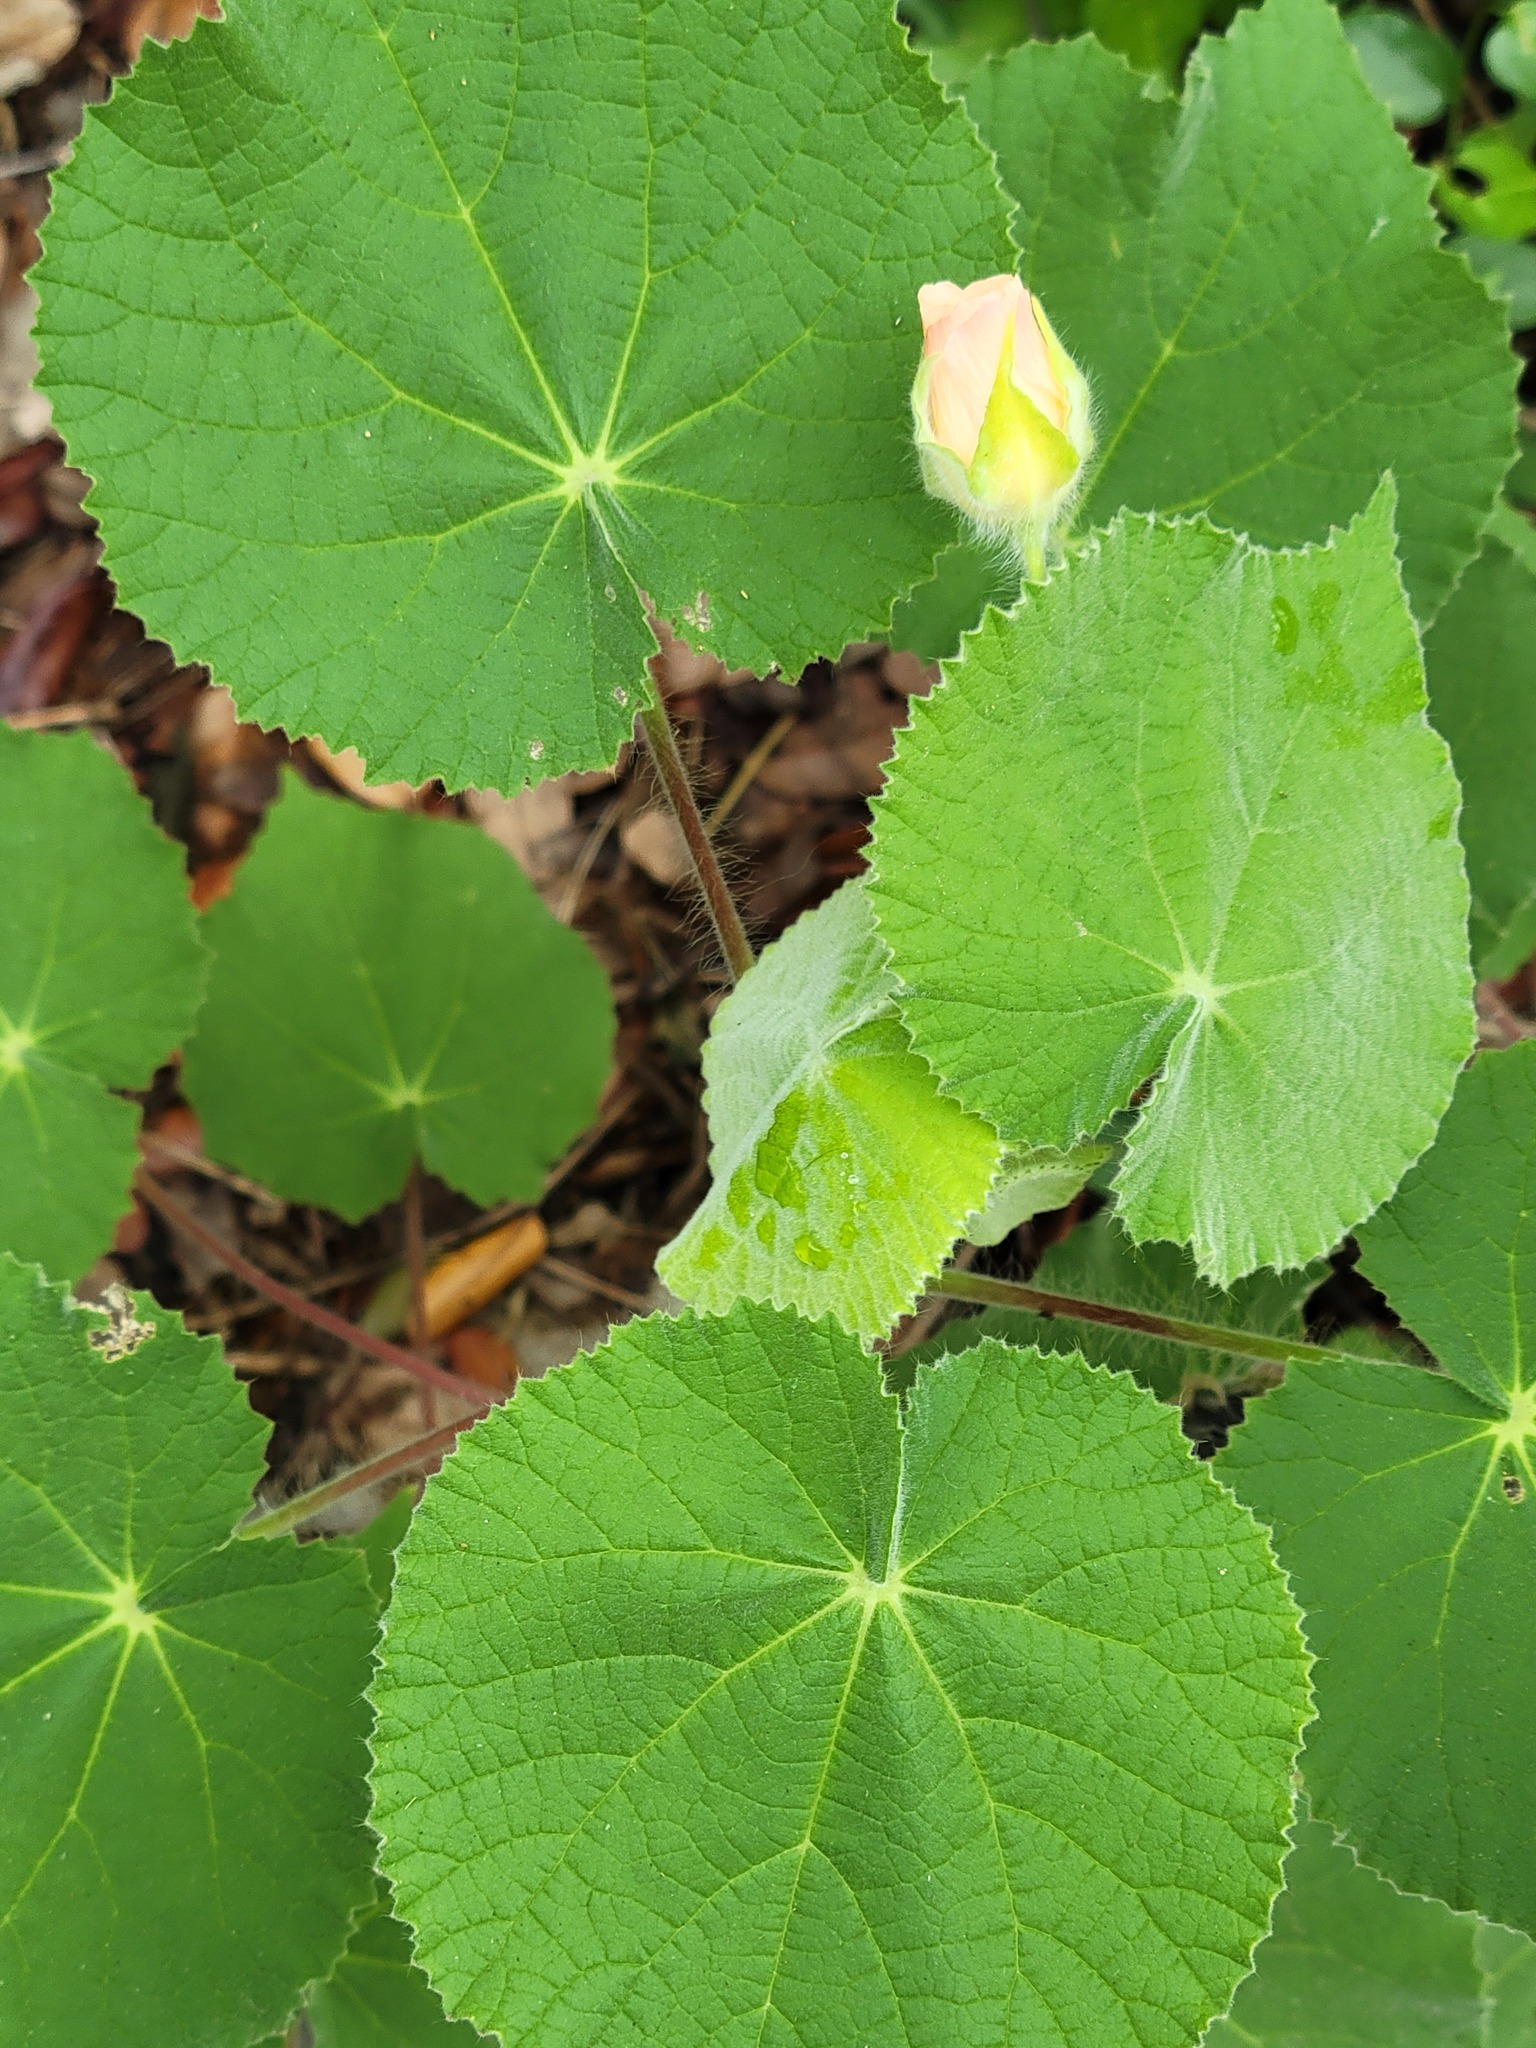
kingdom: Plantae
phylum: Tracheophyta
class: Magnoliopsida
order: Malvales
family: Malvaceae
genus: Abutilon
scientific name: Abutilon hulseanum
